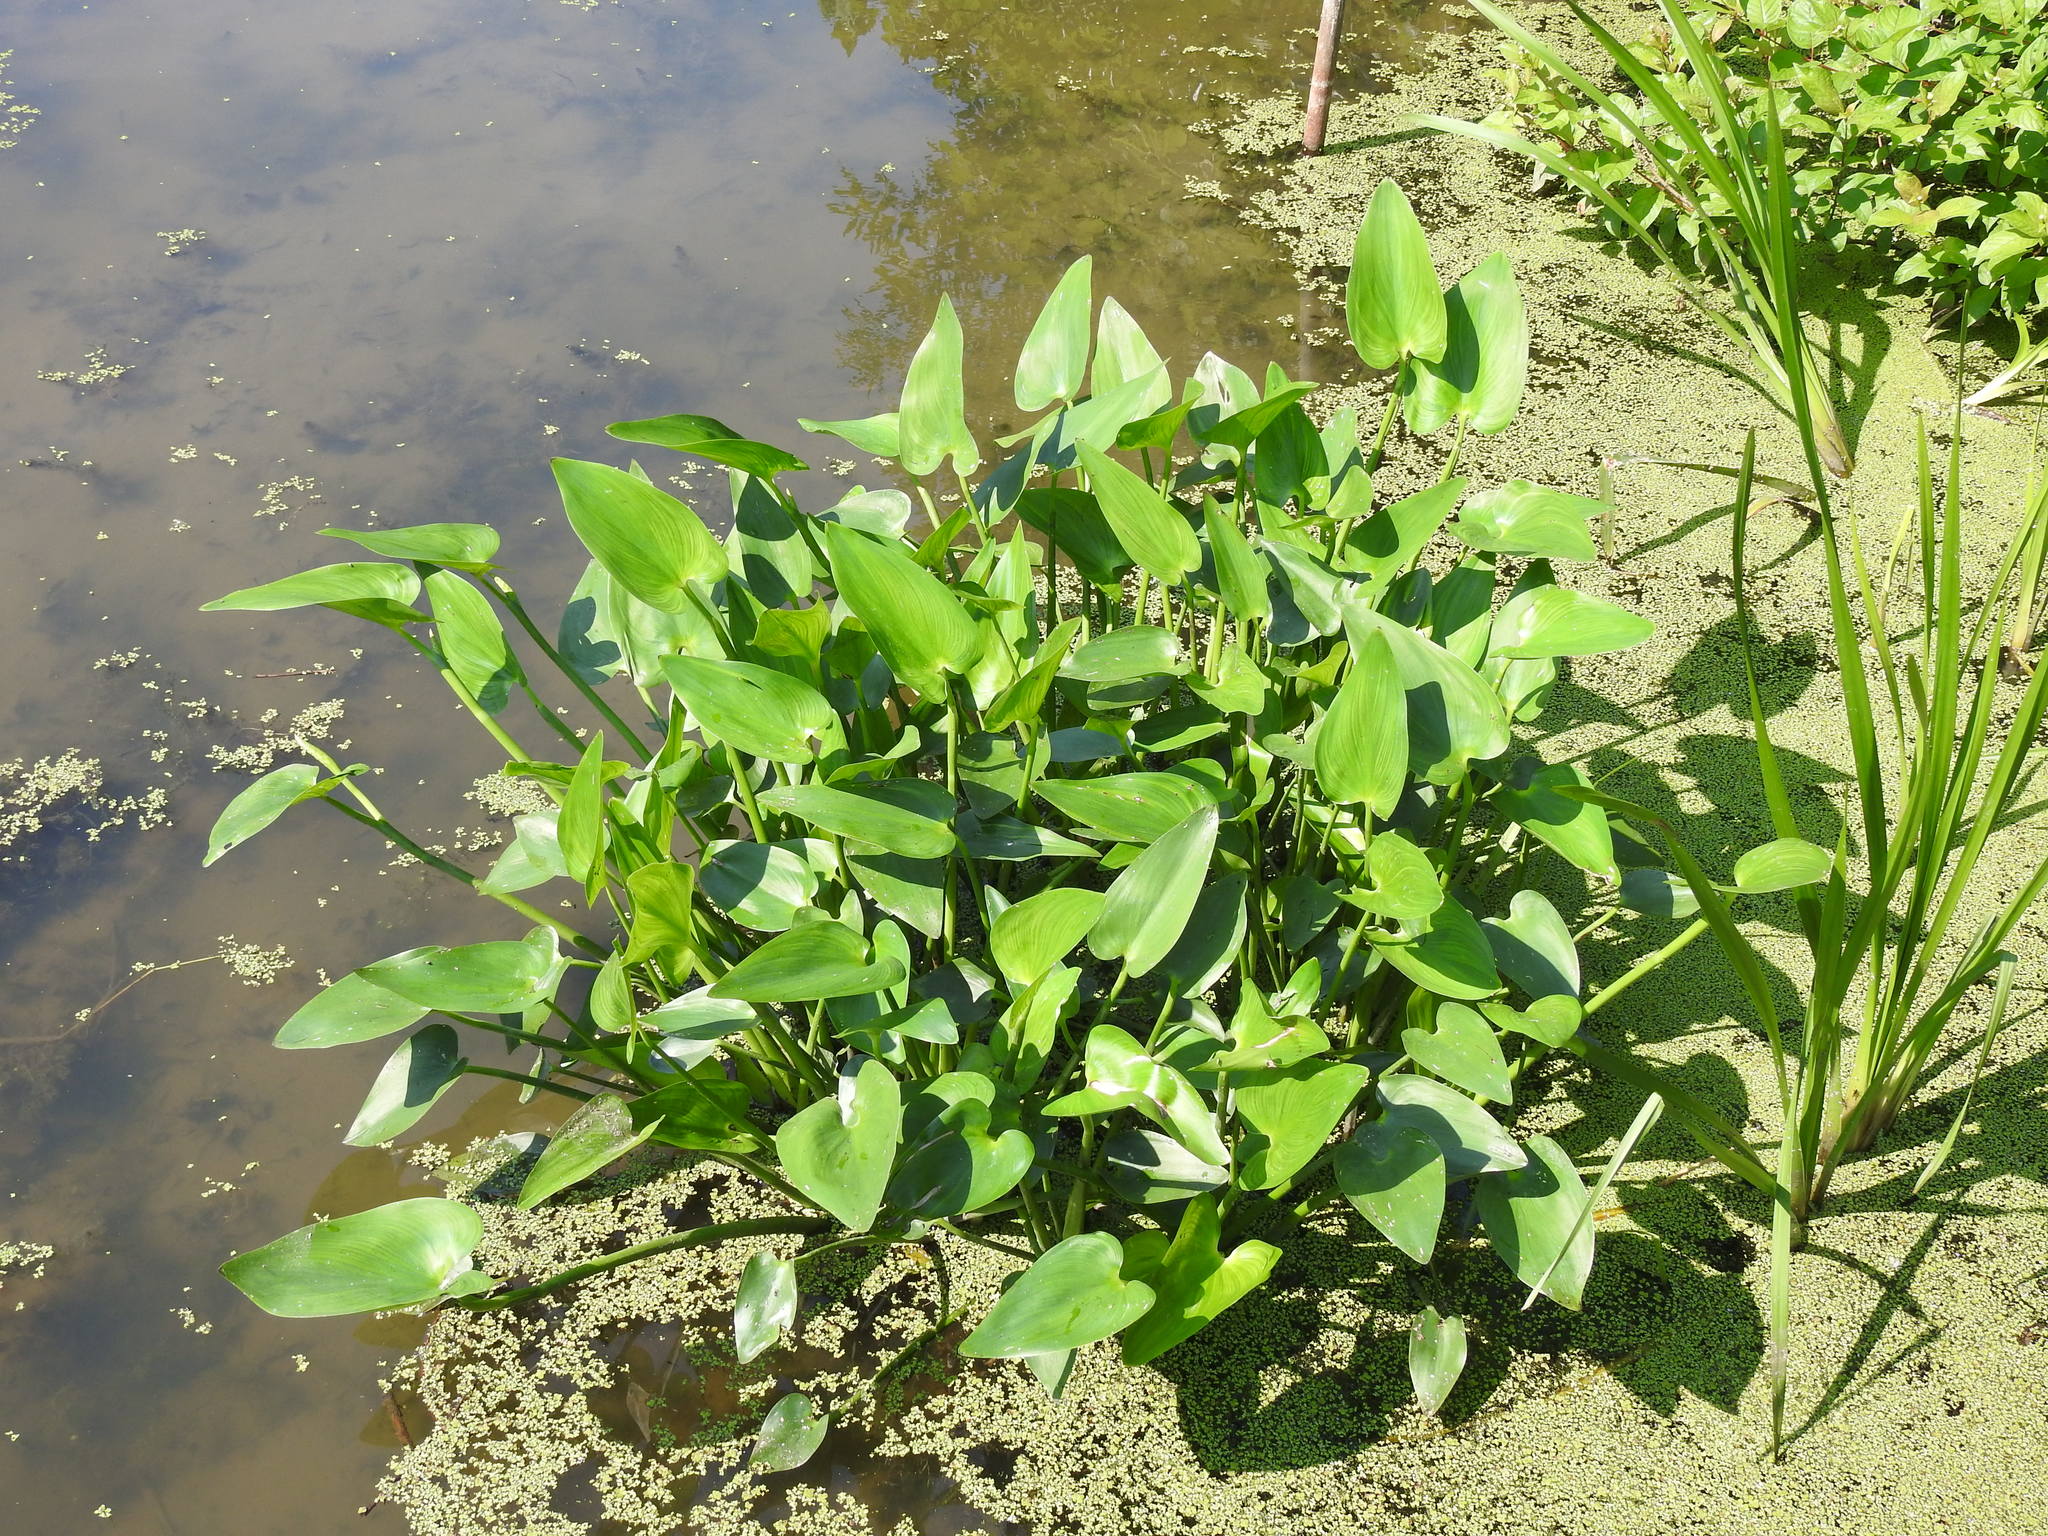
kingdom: Plantae
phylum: Tracheophyta
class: Liliopsida
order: Commelinales
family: Pontederiaceae
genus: Pontederia
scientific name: Pontederia cordata
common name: Pickerelweed
